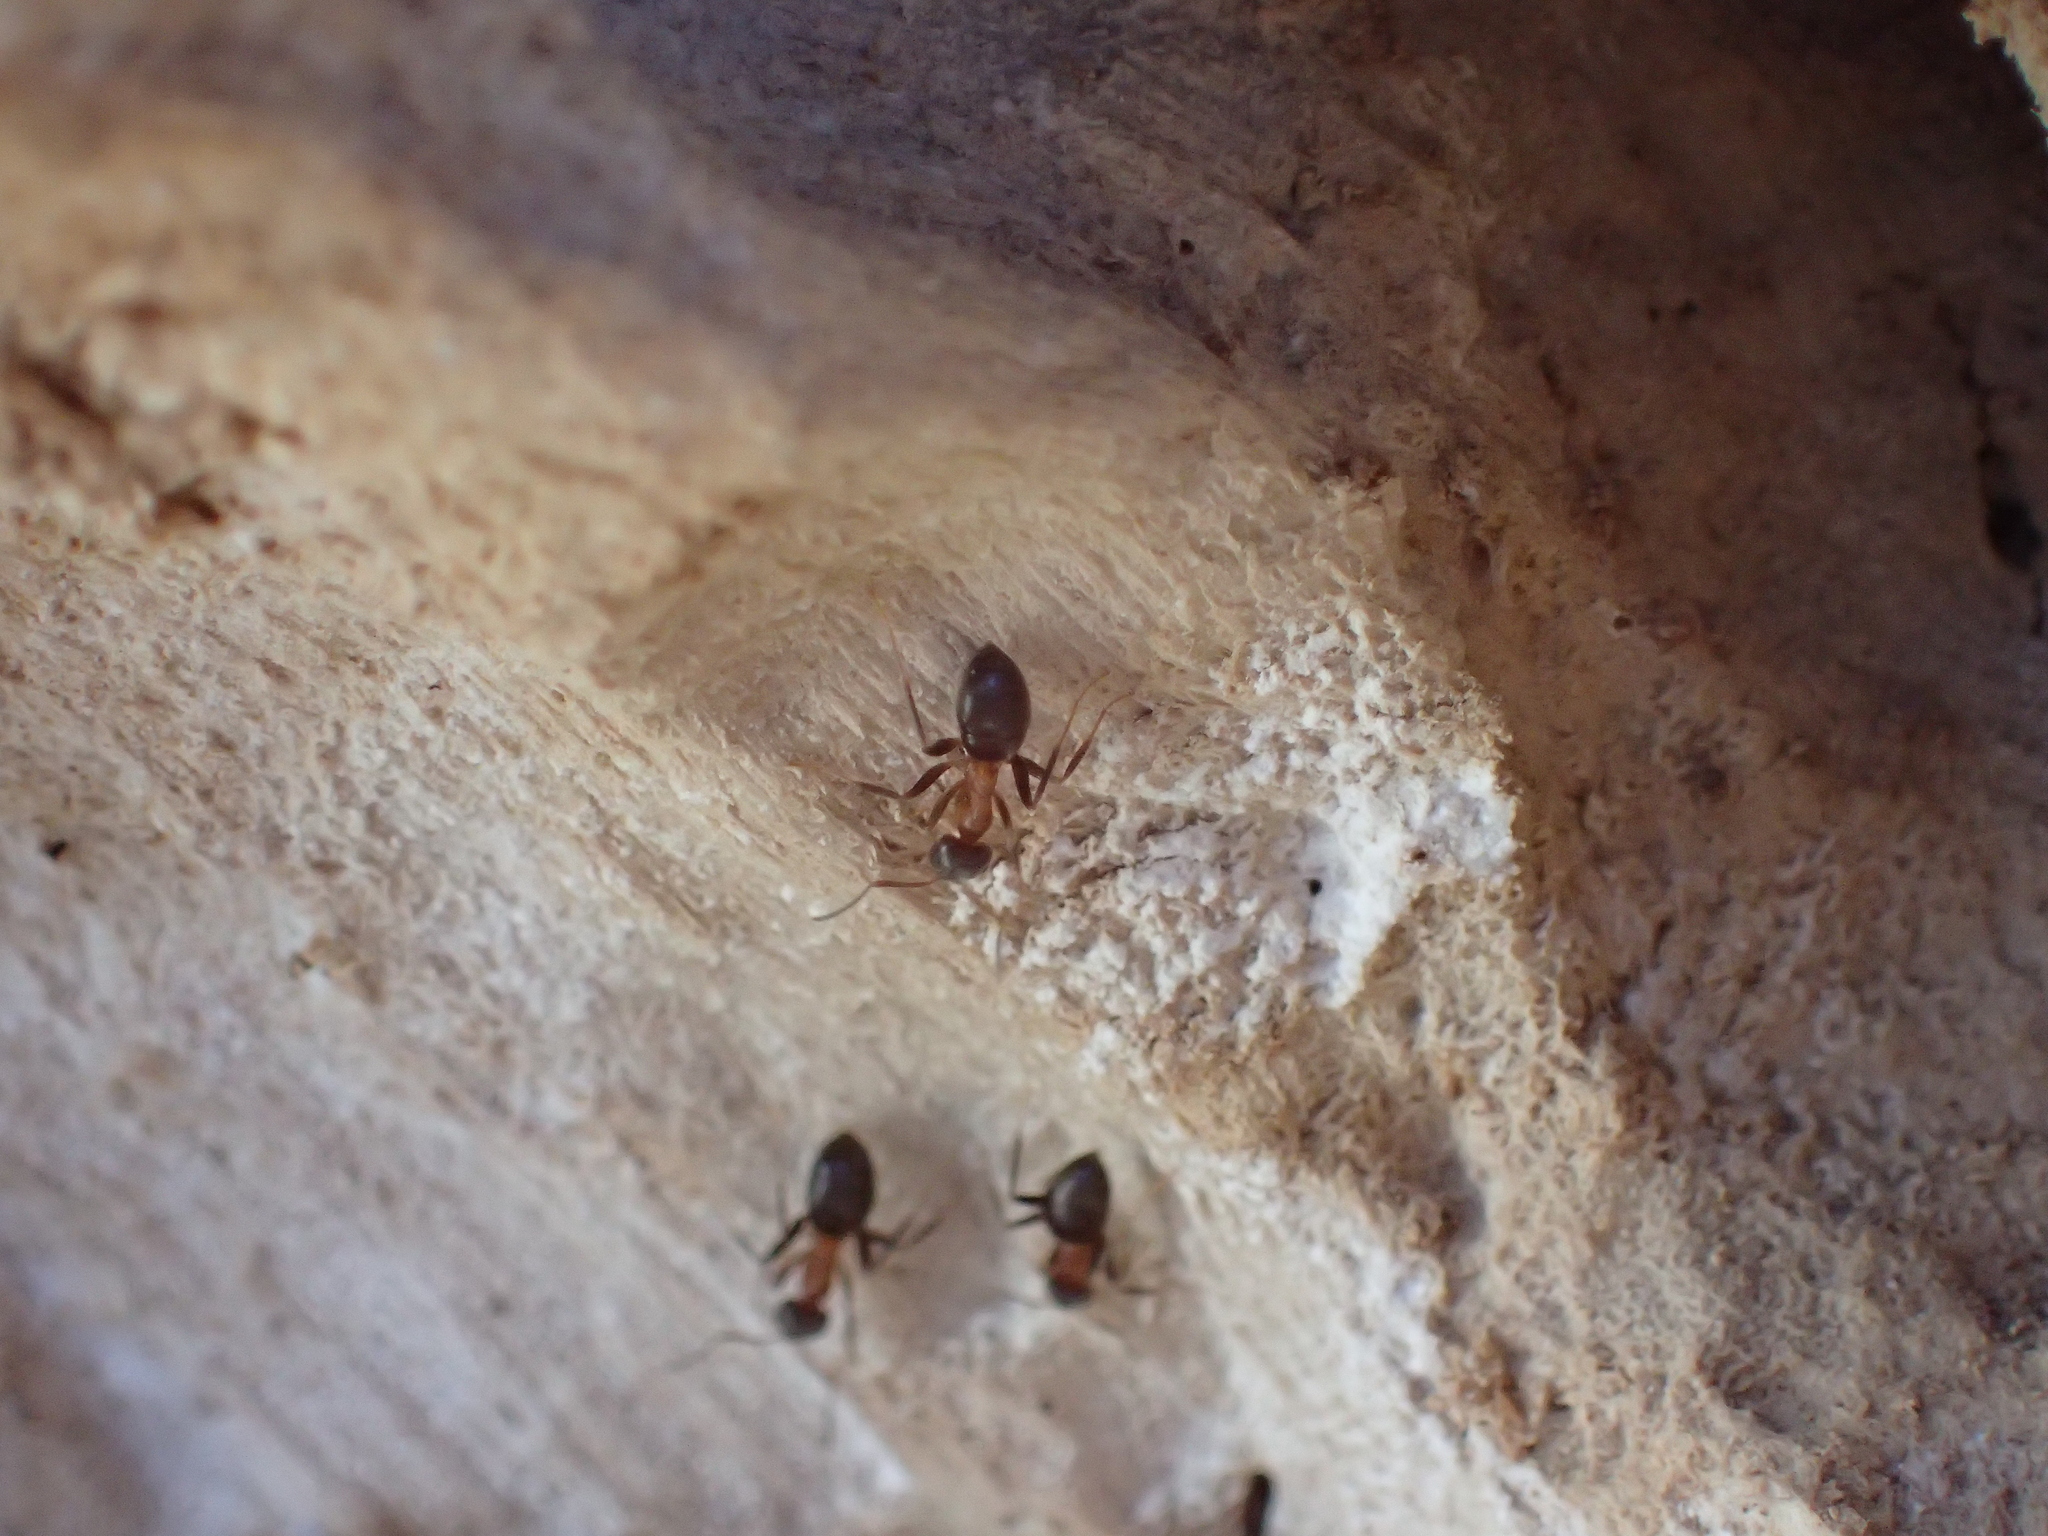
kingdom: Animalia
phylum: Arthropoda
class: Insecta
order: Hymenoptera
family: Formicidae
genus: Lasius
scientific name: Lasius emarginatus
